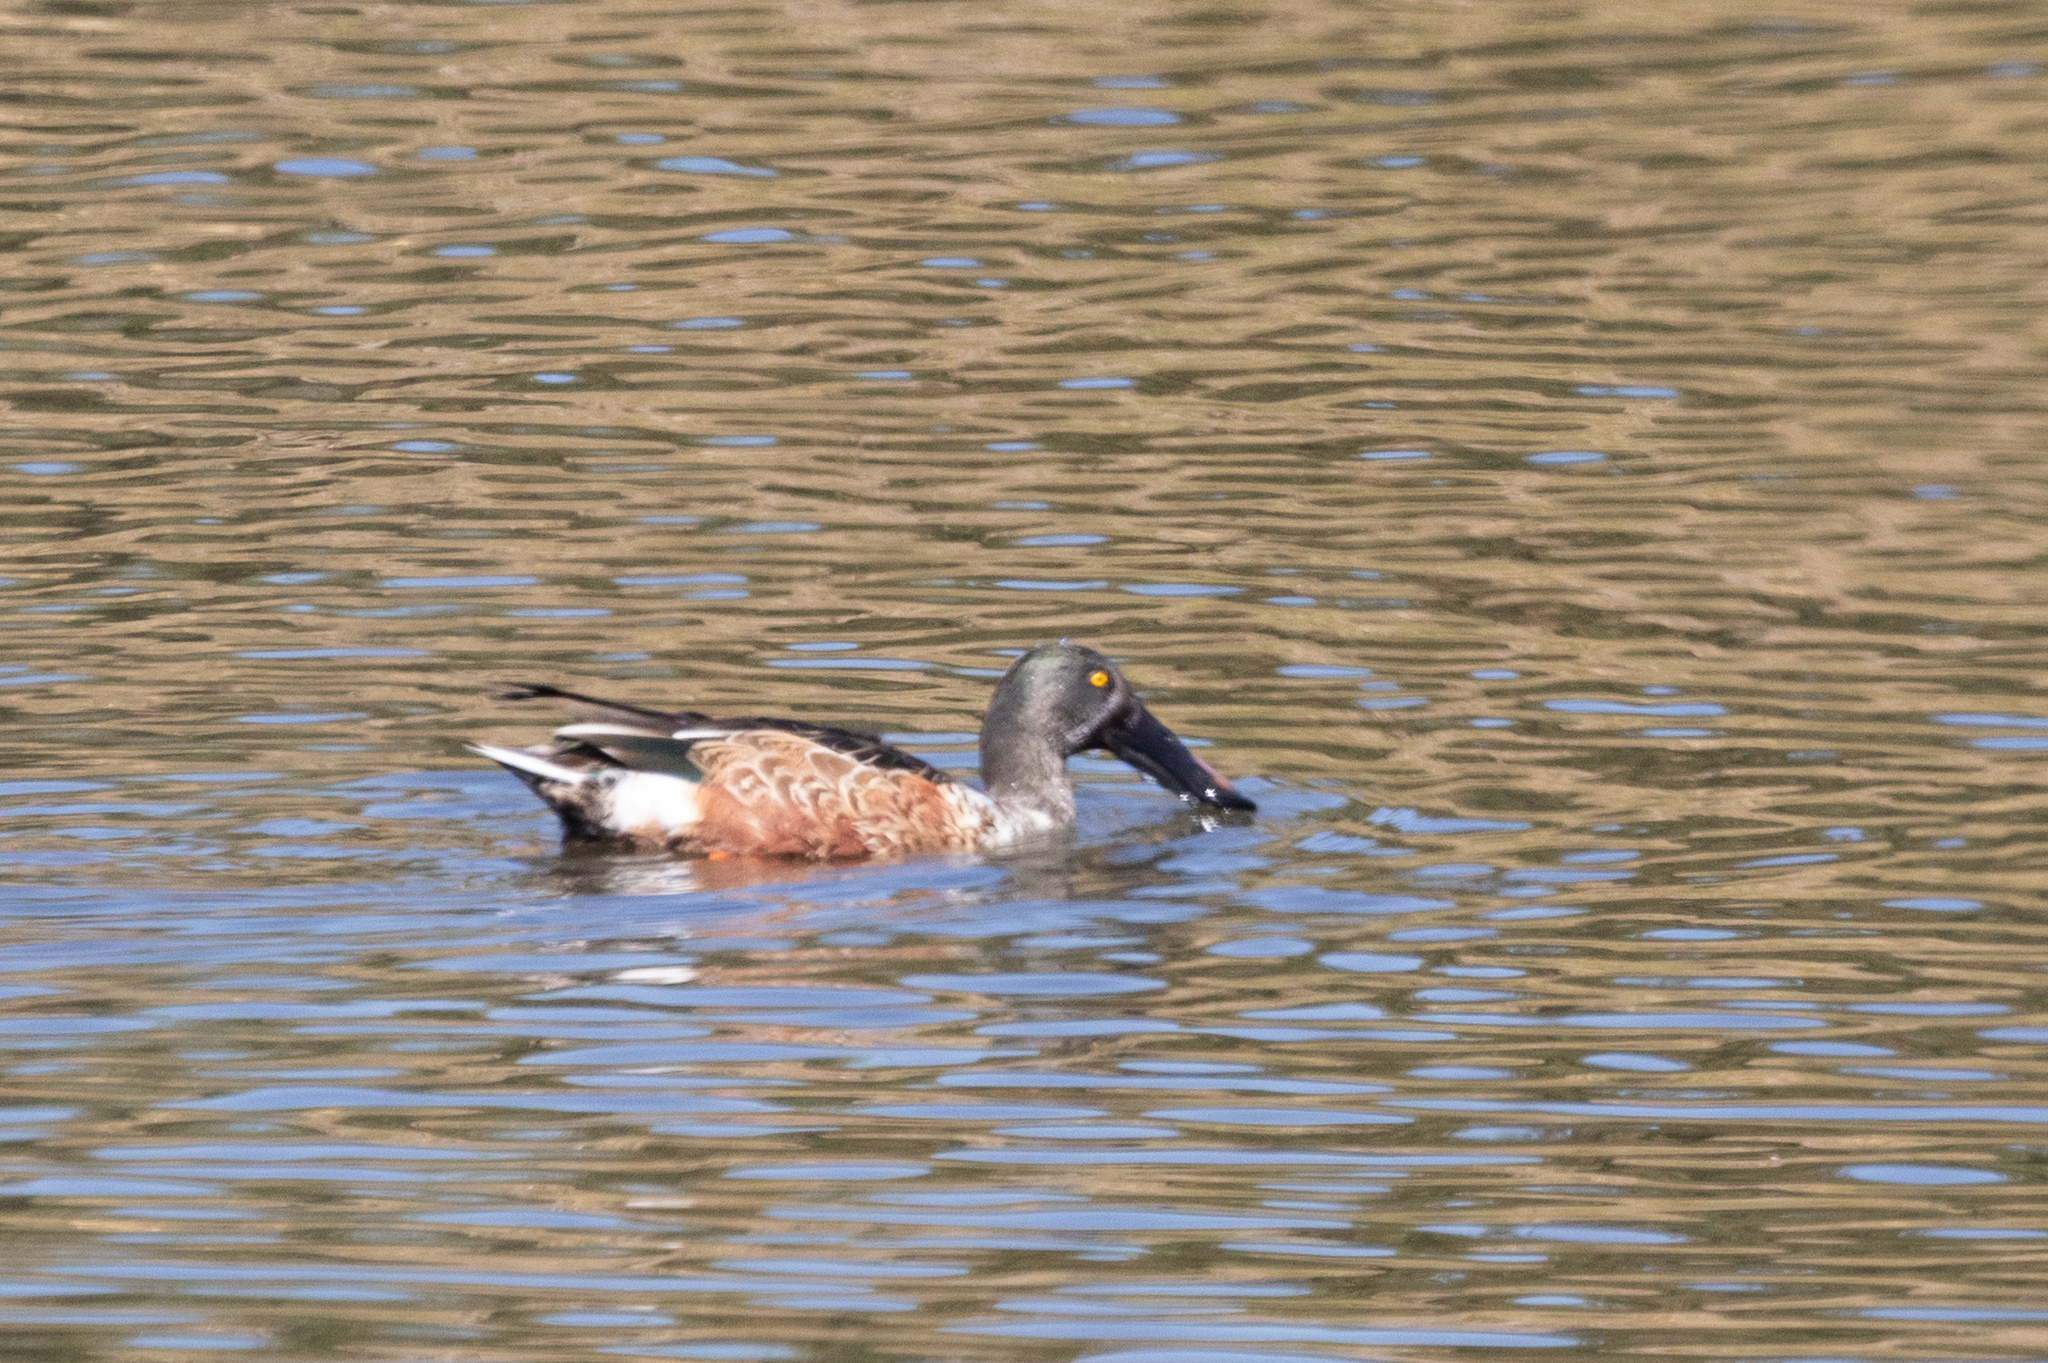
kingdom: Animalia
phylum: Chordata
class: Aves
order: Anseriformes
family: Anatidae
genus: Spatula
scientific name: Spatula clypeata
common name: Northern shoveler
